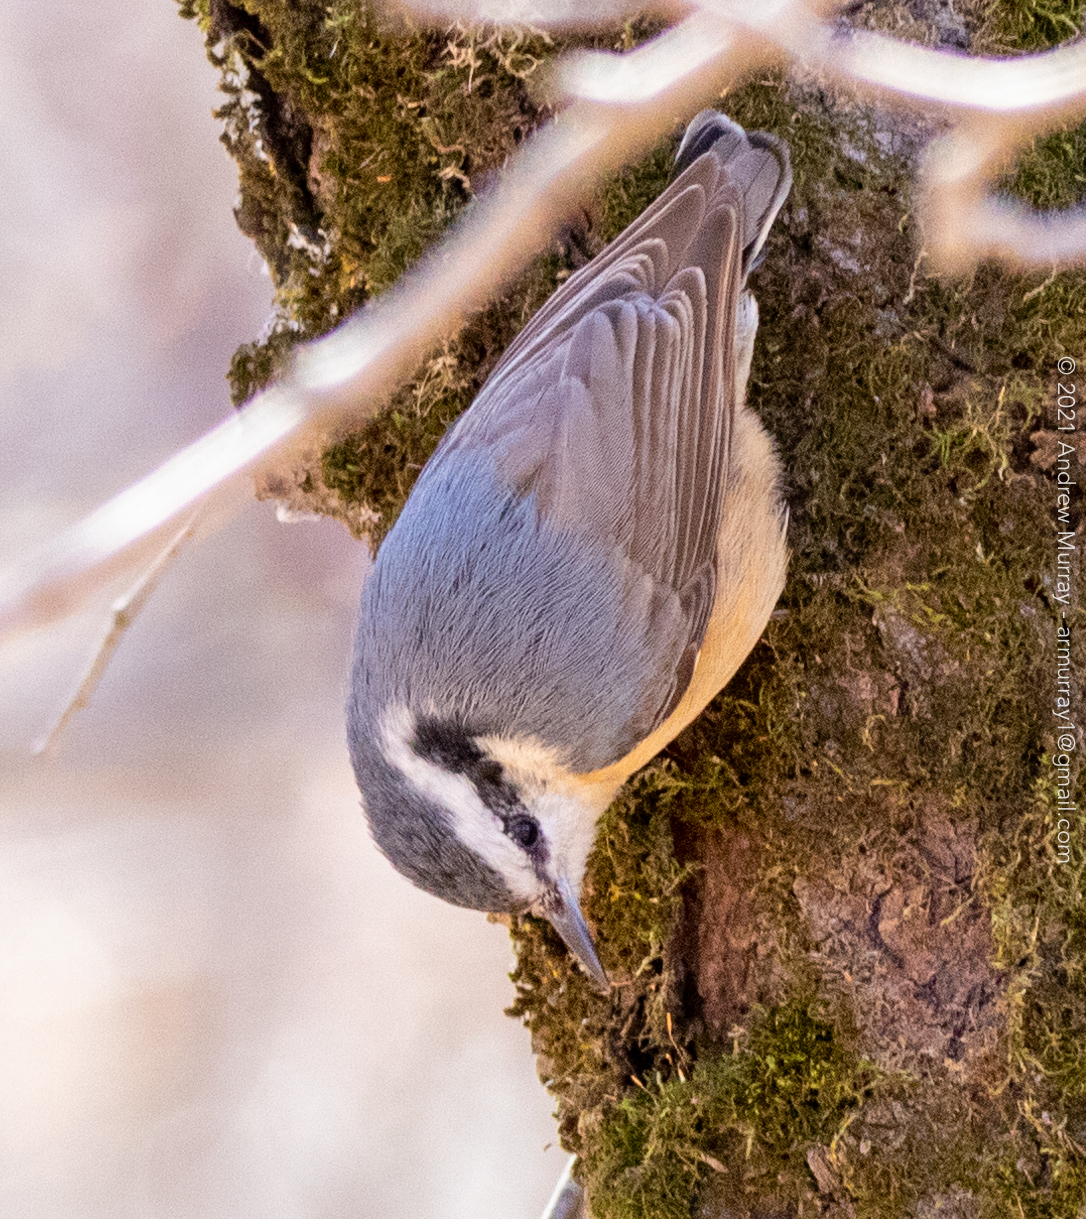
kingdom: Animalia
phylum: Chordata
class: Aves
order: Passeriformes
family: Sittidae
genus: Sitta
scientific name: Sitta canadensis
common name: Red-breasted nuthatch
